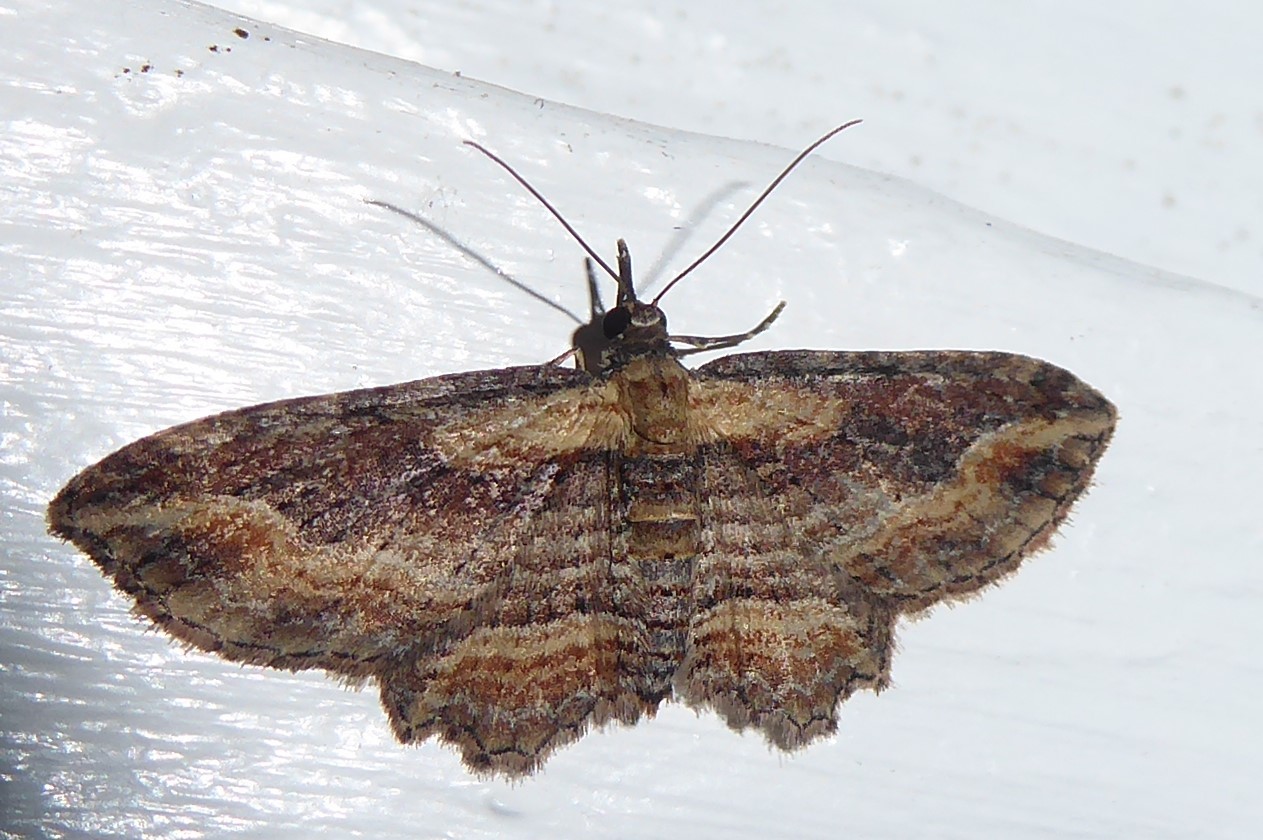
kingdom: Animalia
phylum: Arthropoda
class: Insecta
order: Lepidoptera
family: Geometridae
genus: Chloroclystis
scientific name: Chloroclystis filata
